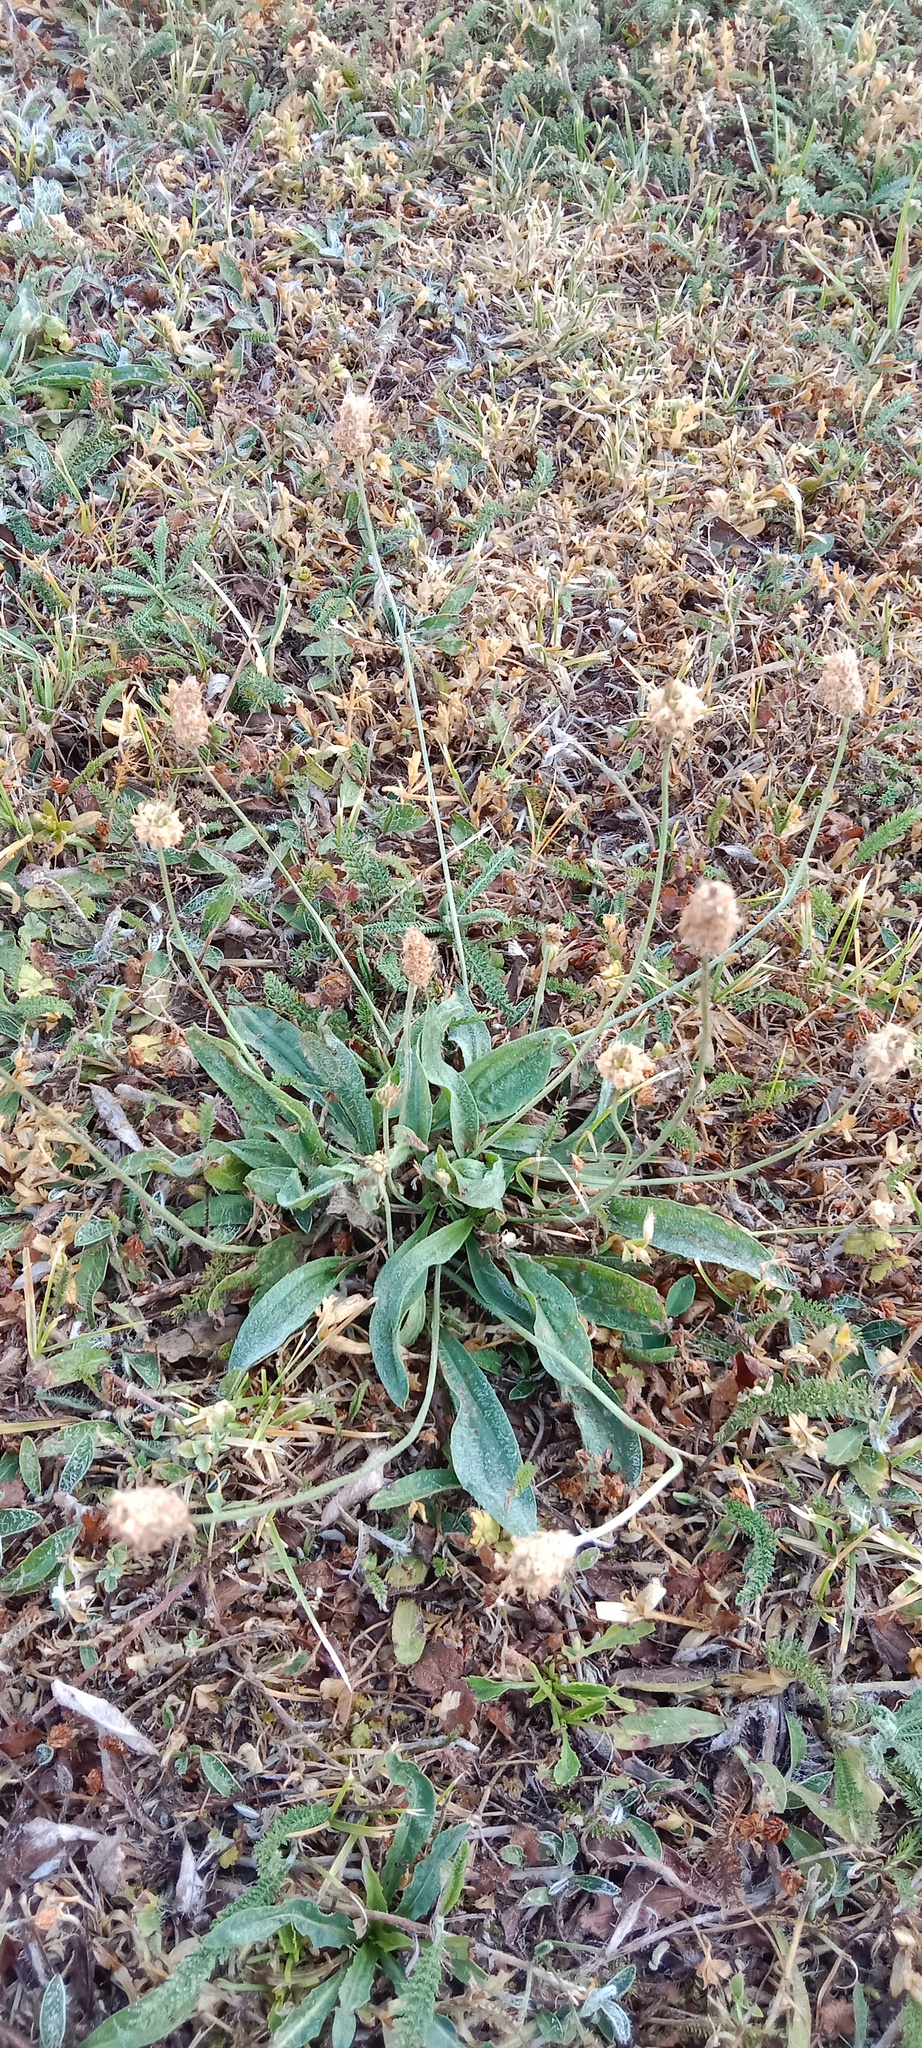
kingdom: Plantae
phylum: Tracheophyta
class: Magnoliopsida
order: Lamiales
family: Plantaginaceae
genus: Plantago
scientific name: Plantago lanceolata
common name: Ribwort plantain
